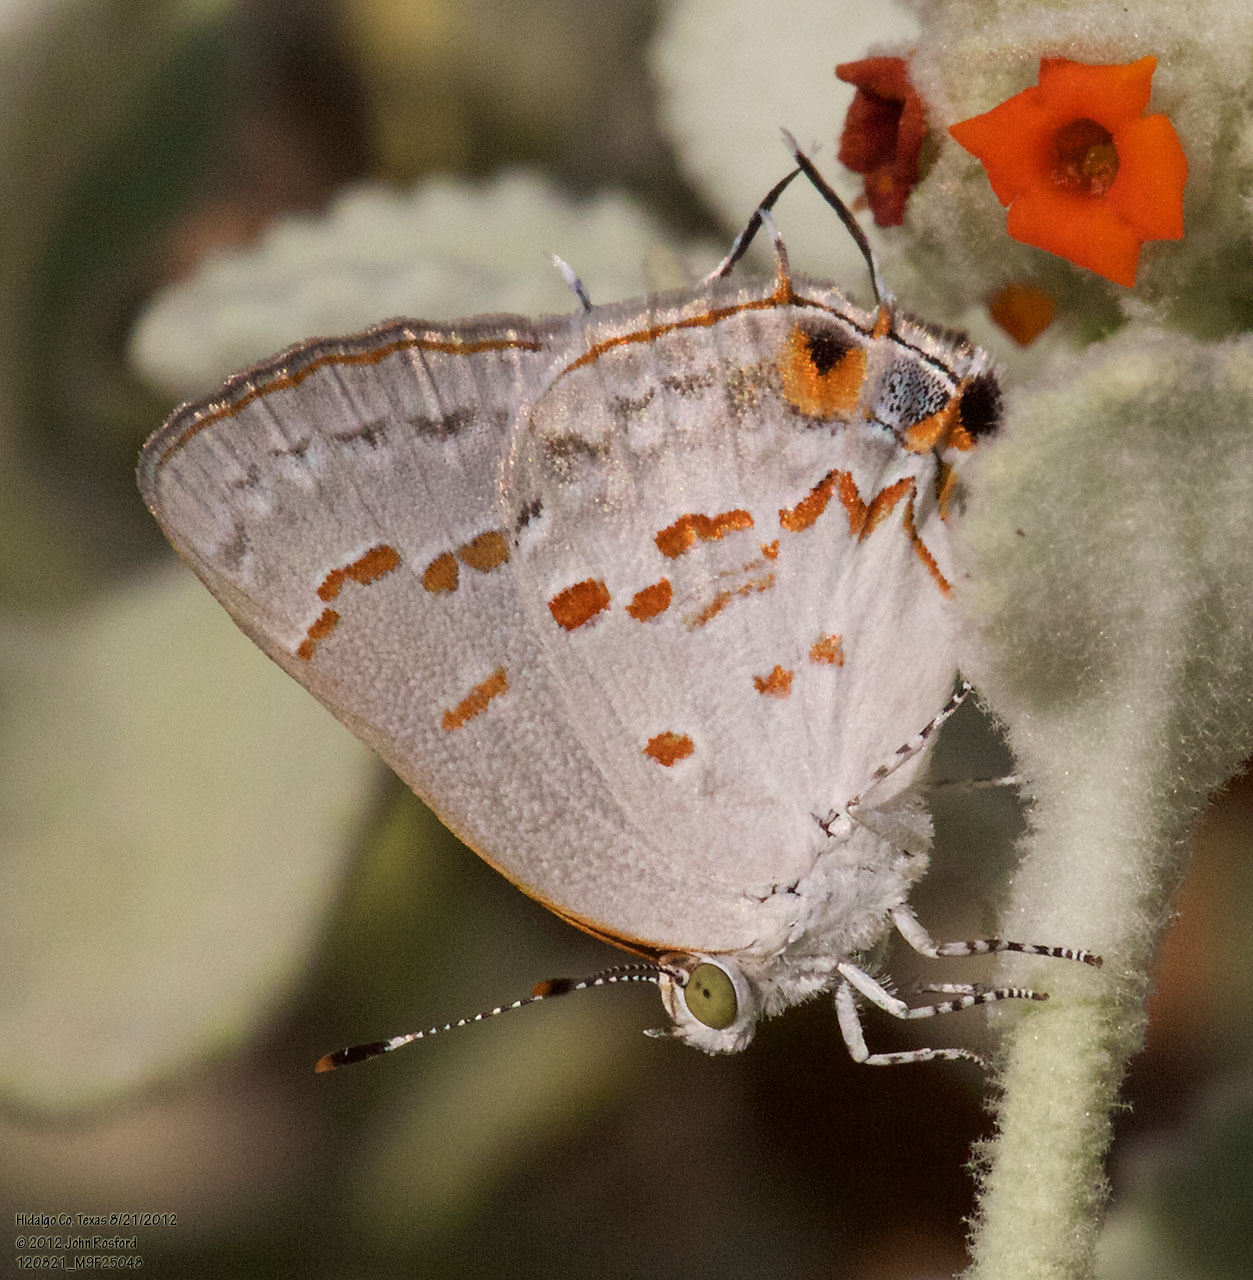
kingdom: Animalia
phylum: Arthropoda
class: Insecta
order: Lepidoptera
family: Lycaenidae
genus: Ministrymon
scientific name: Ministrymon clytie
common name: Clytie ministreak
